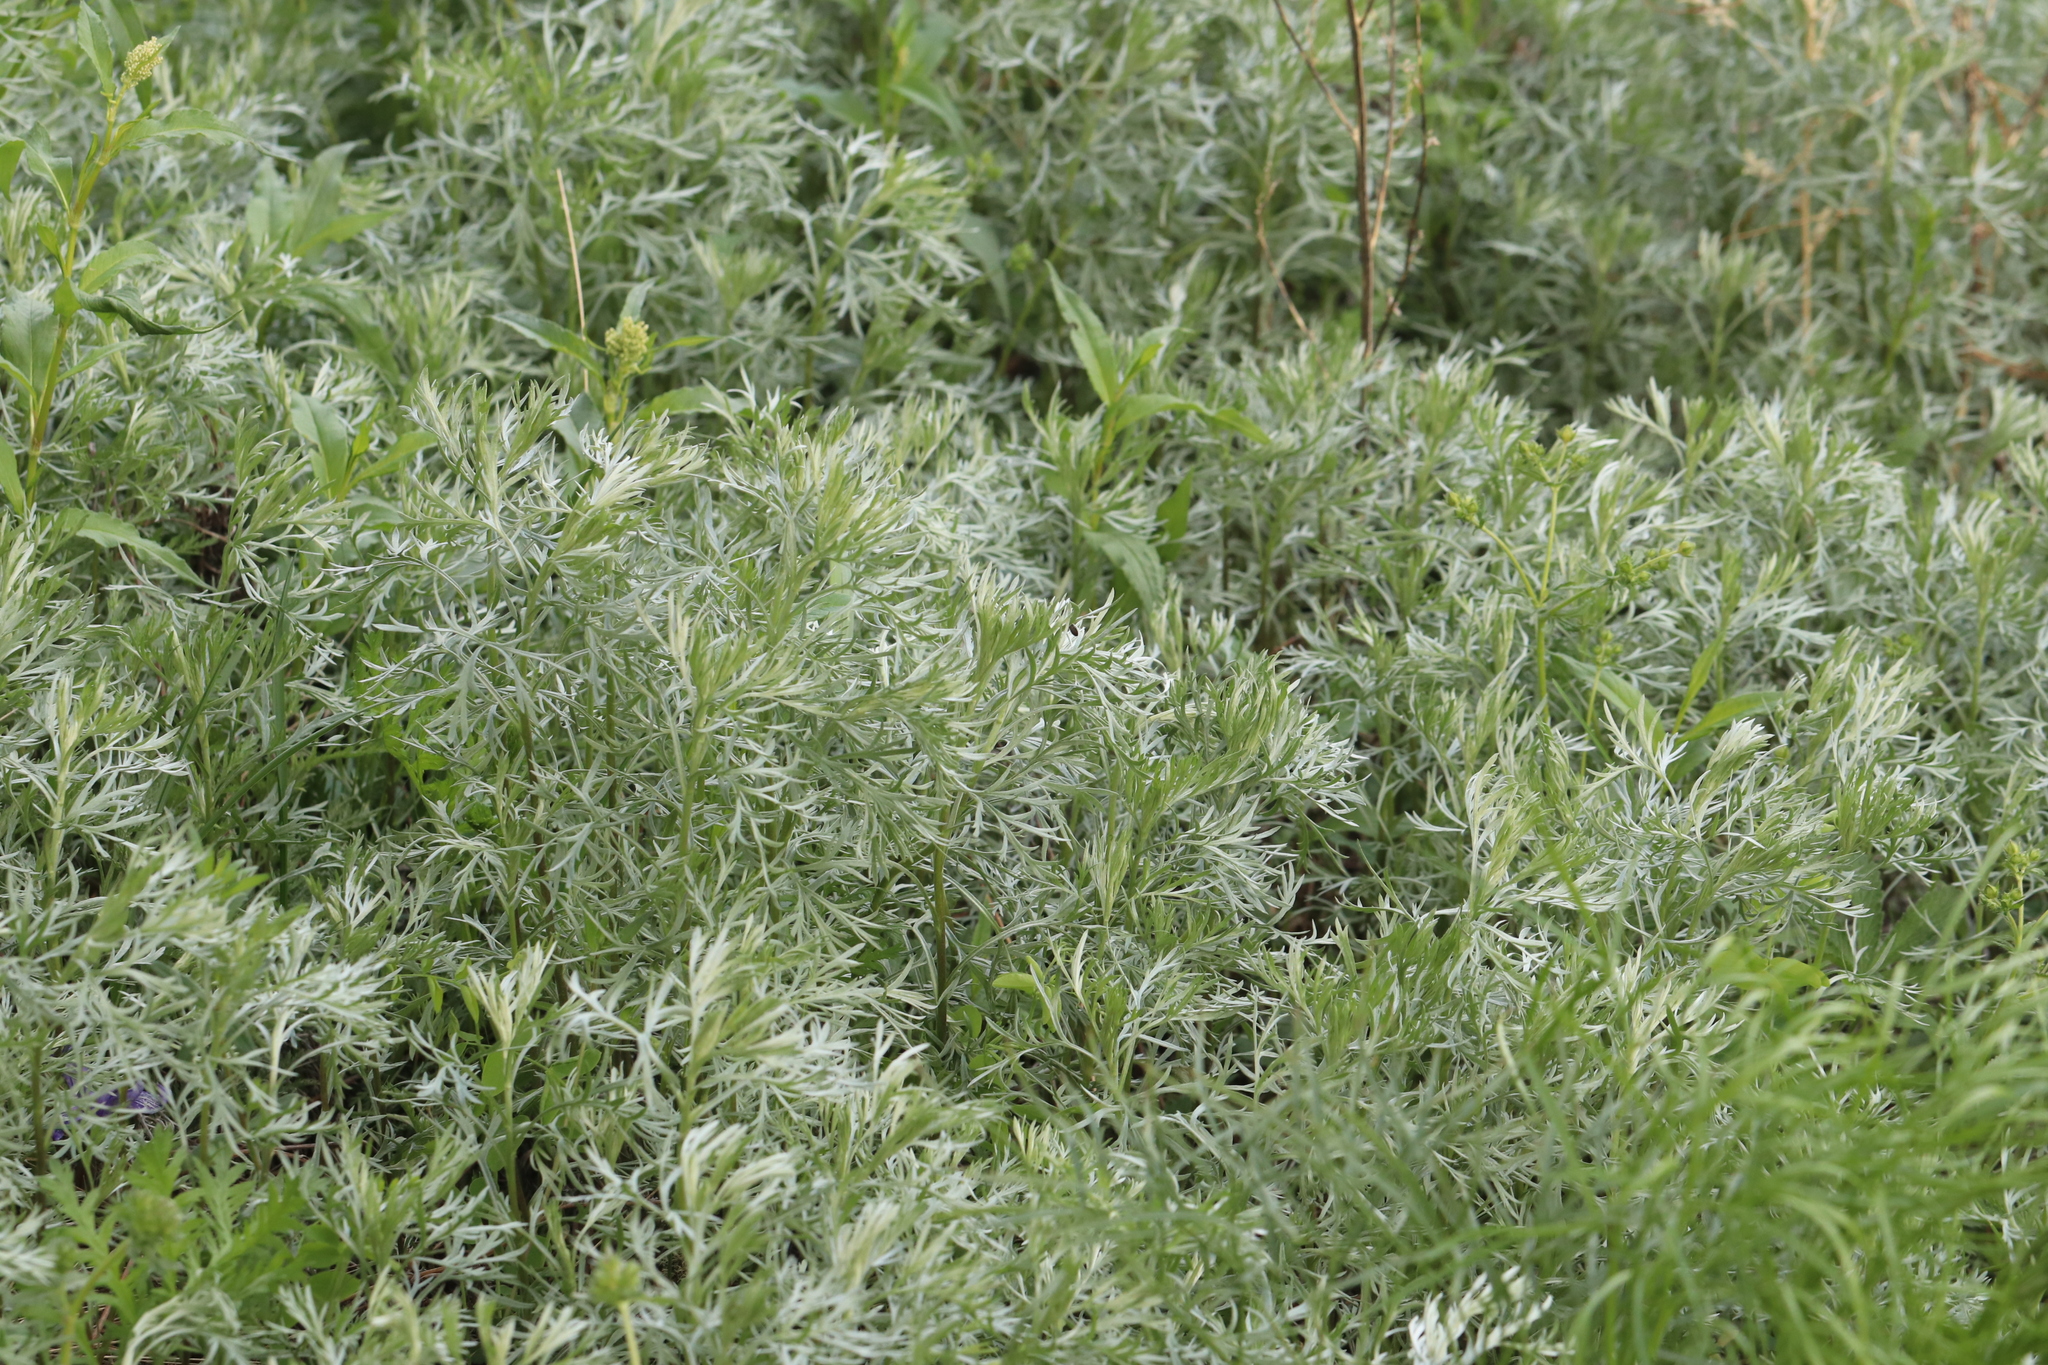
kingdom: Plantae
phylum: Tracheophyta
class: Magnoliopsida
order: Asterales
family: Asteraceae
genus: Artemisia
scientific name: Artemisia sericea
